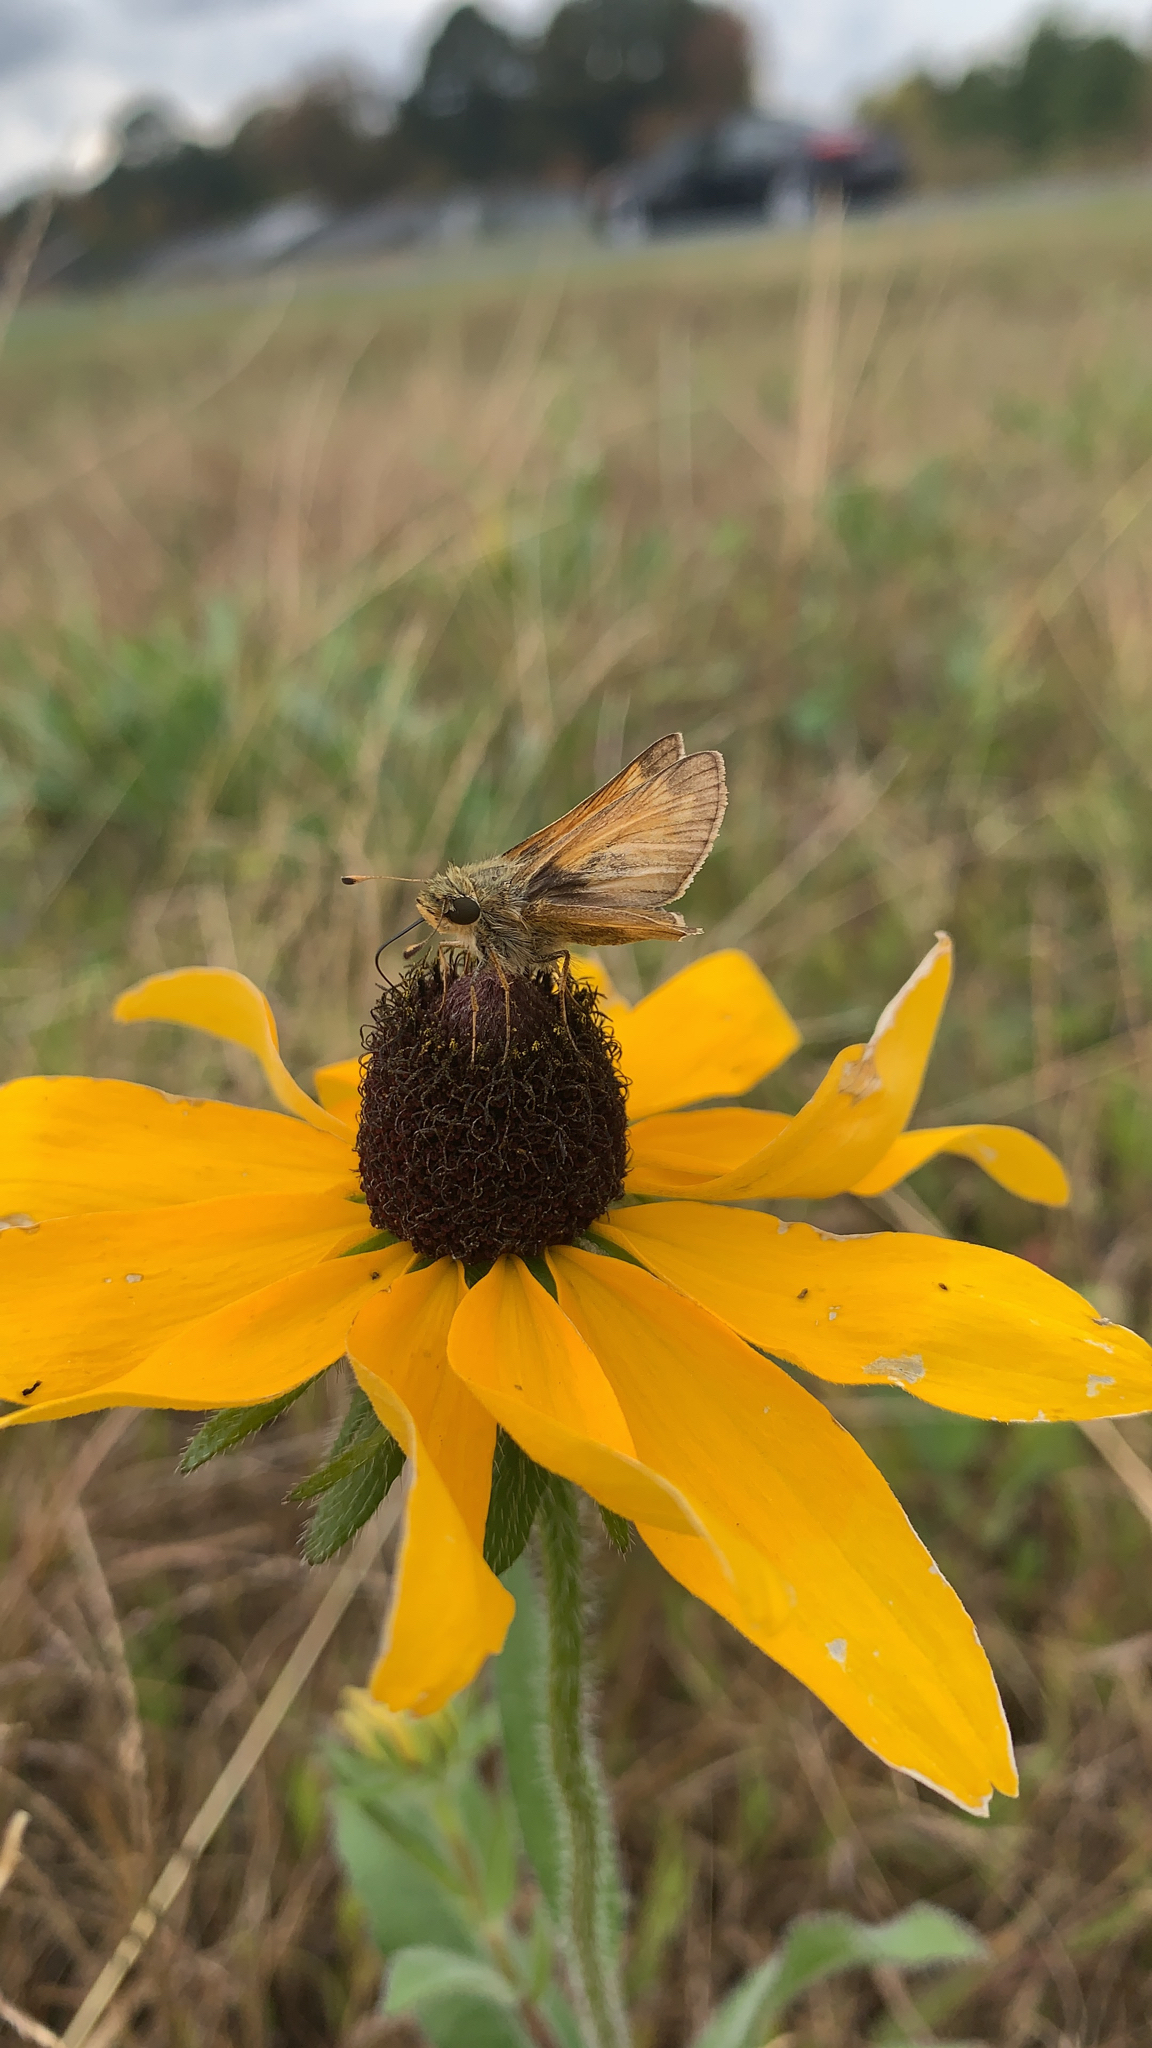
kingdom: Animalia
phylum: Arthropoda
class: Insecta
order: Lepidoptera
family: Hesperiidae
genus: Atalopedes
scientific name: Atalopedes
